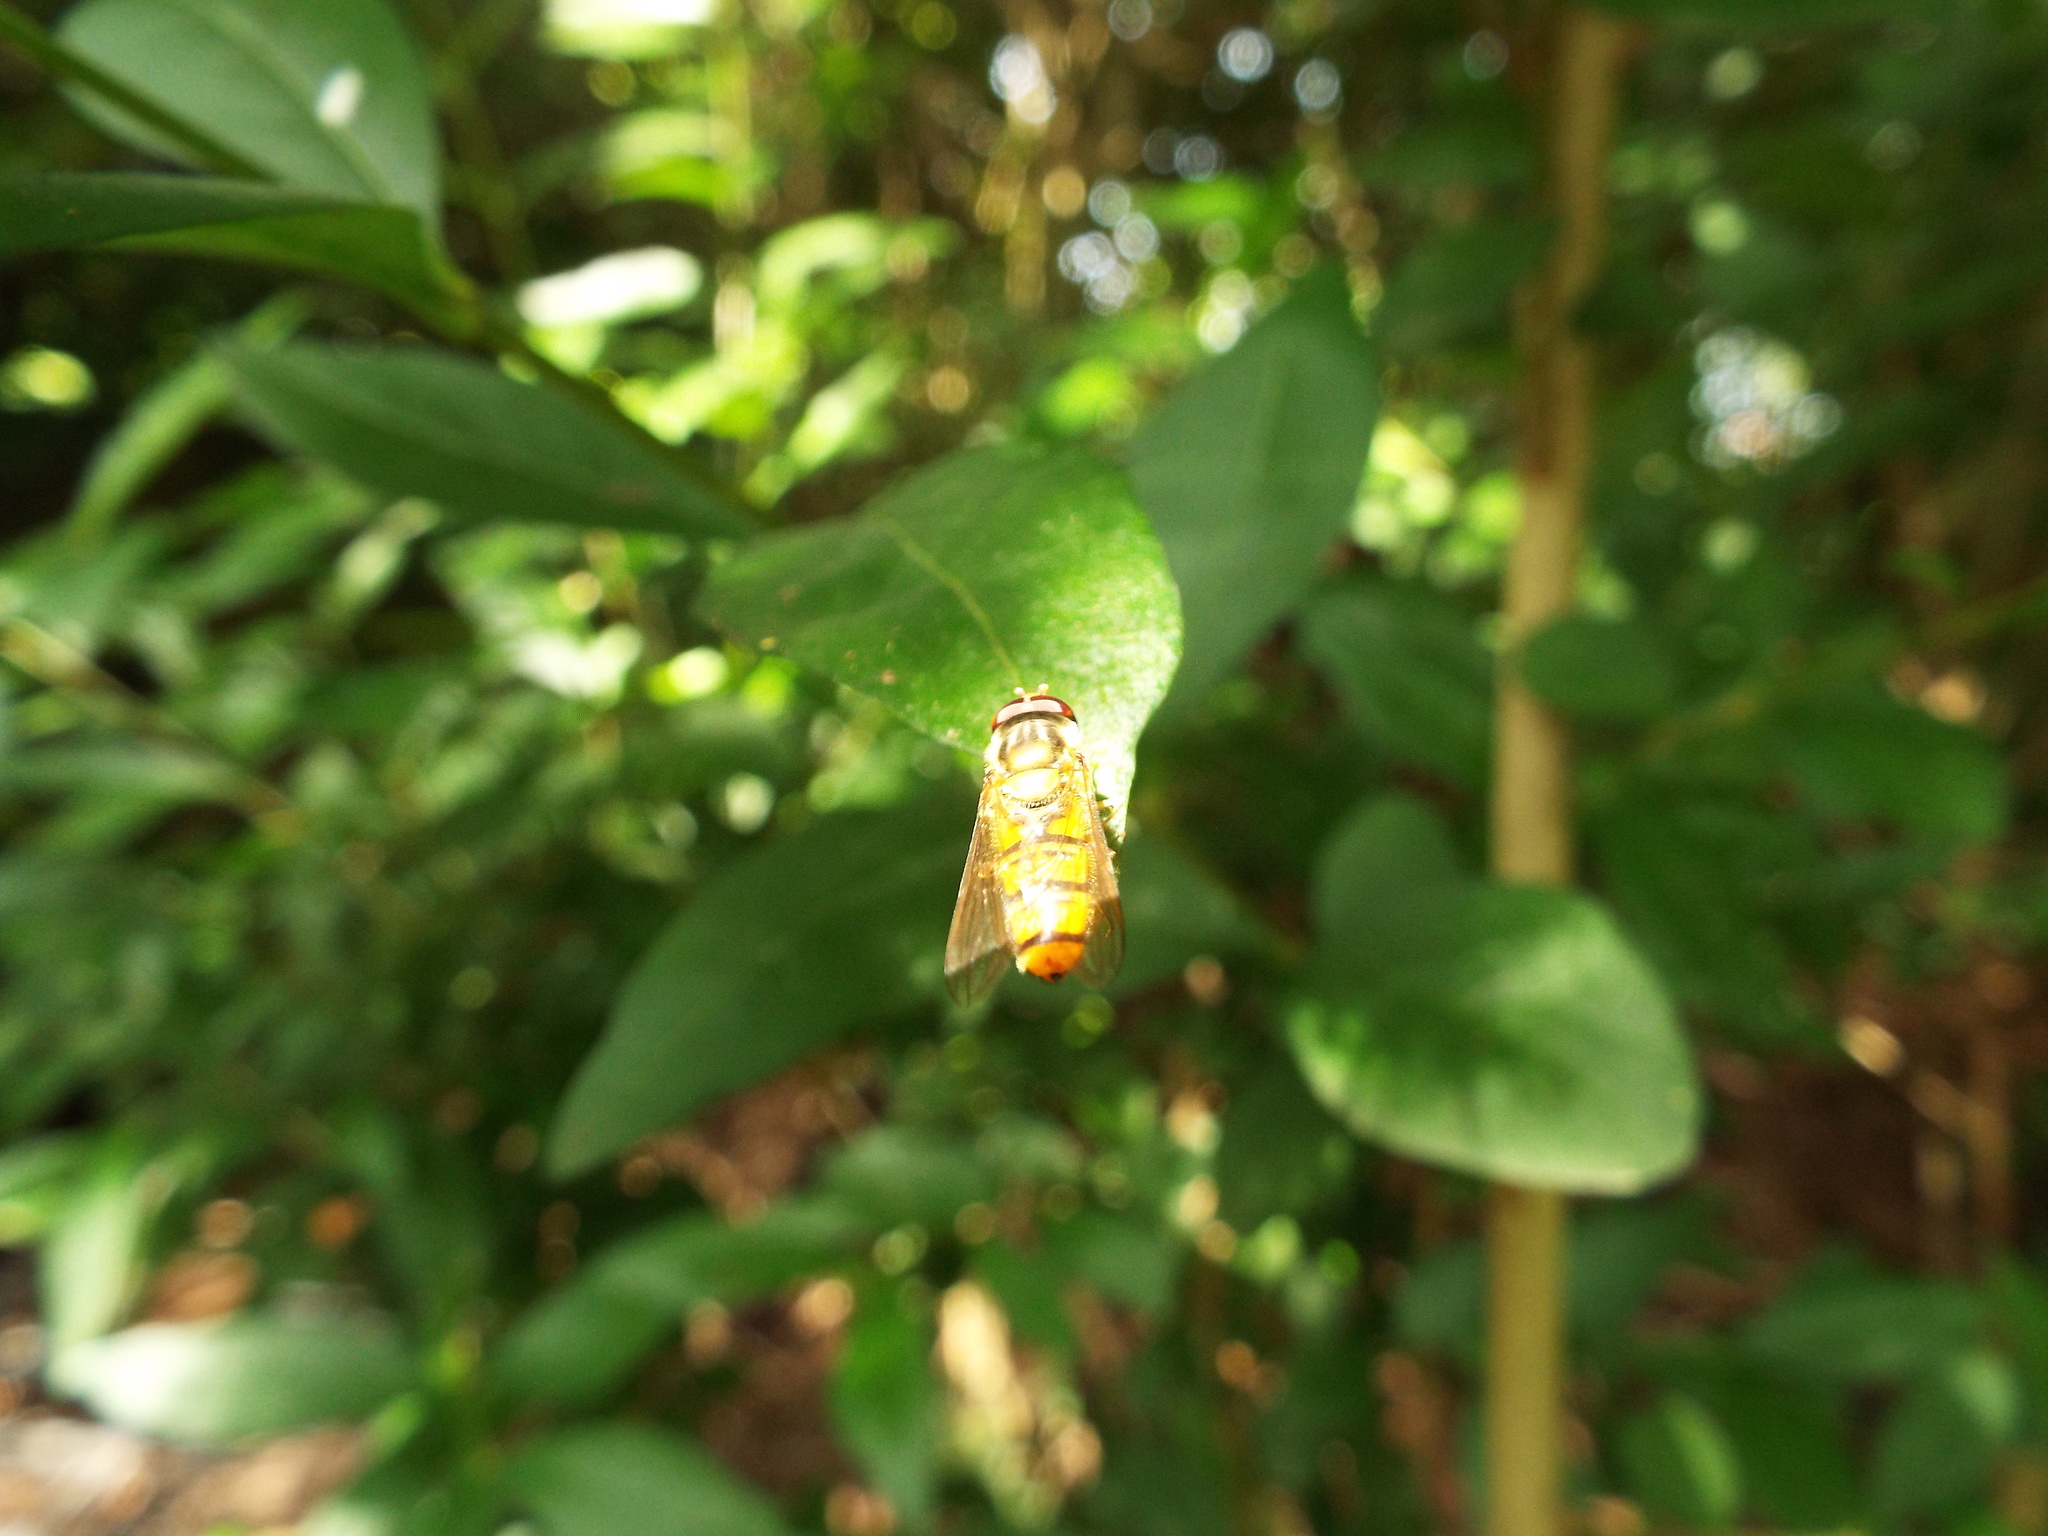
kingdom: Animalia
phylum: Arthropoda
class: Insecta
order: Diptera
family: Syrphidae
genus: Episyrphus
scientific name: Episyrphus balteatus
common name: Marmalade hoverfly
